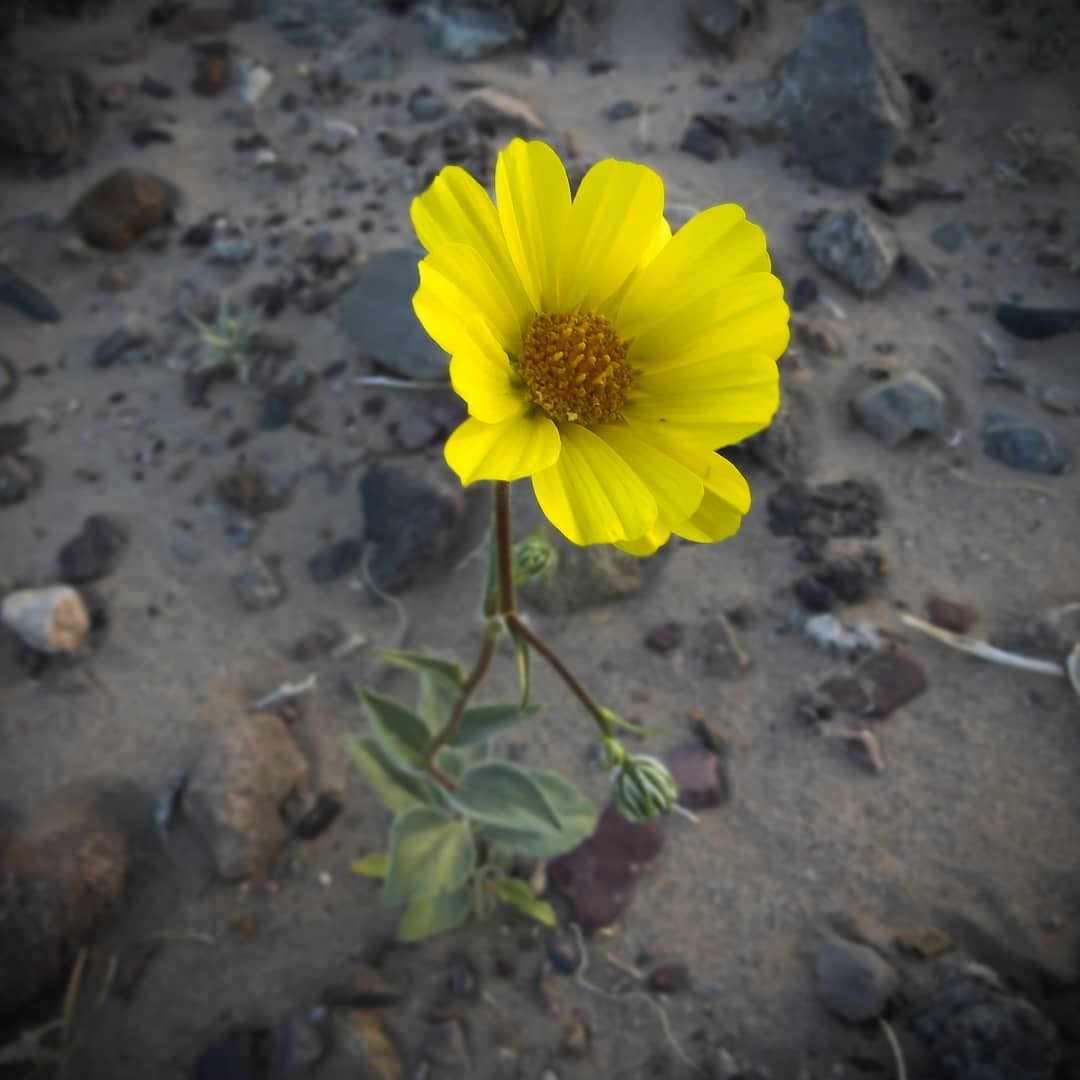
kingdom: Plantae
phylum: Tracheophyta
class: Magnoliopsida
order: Asterales
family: Asteraceae
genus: Geraea
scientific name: Geraea canescens
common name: Desert-gold
